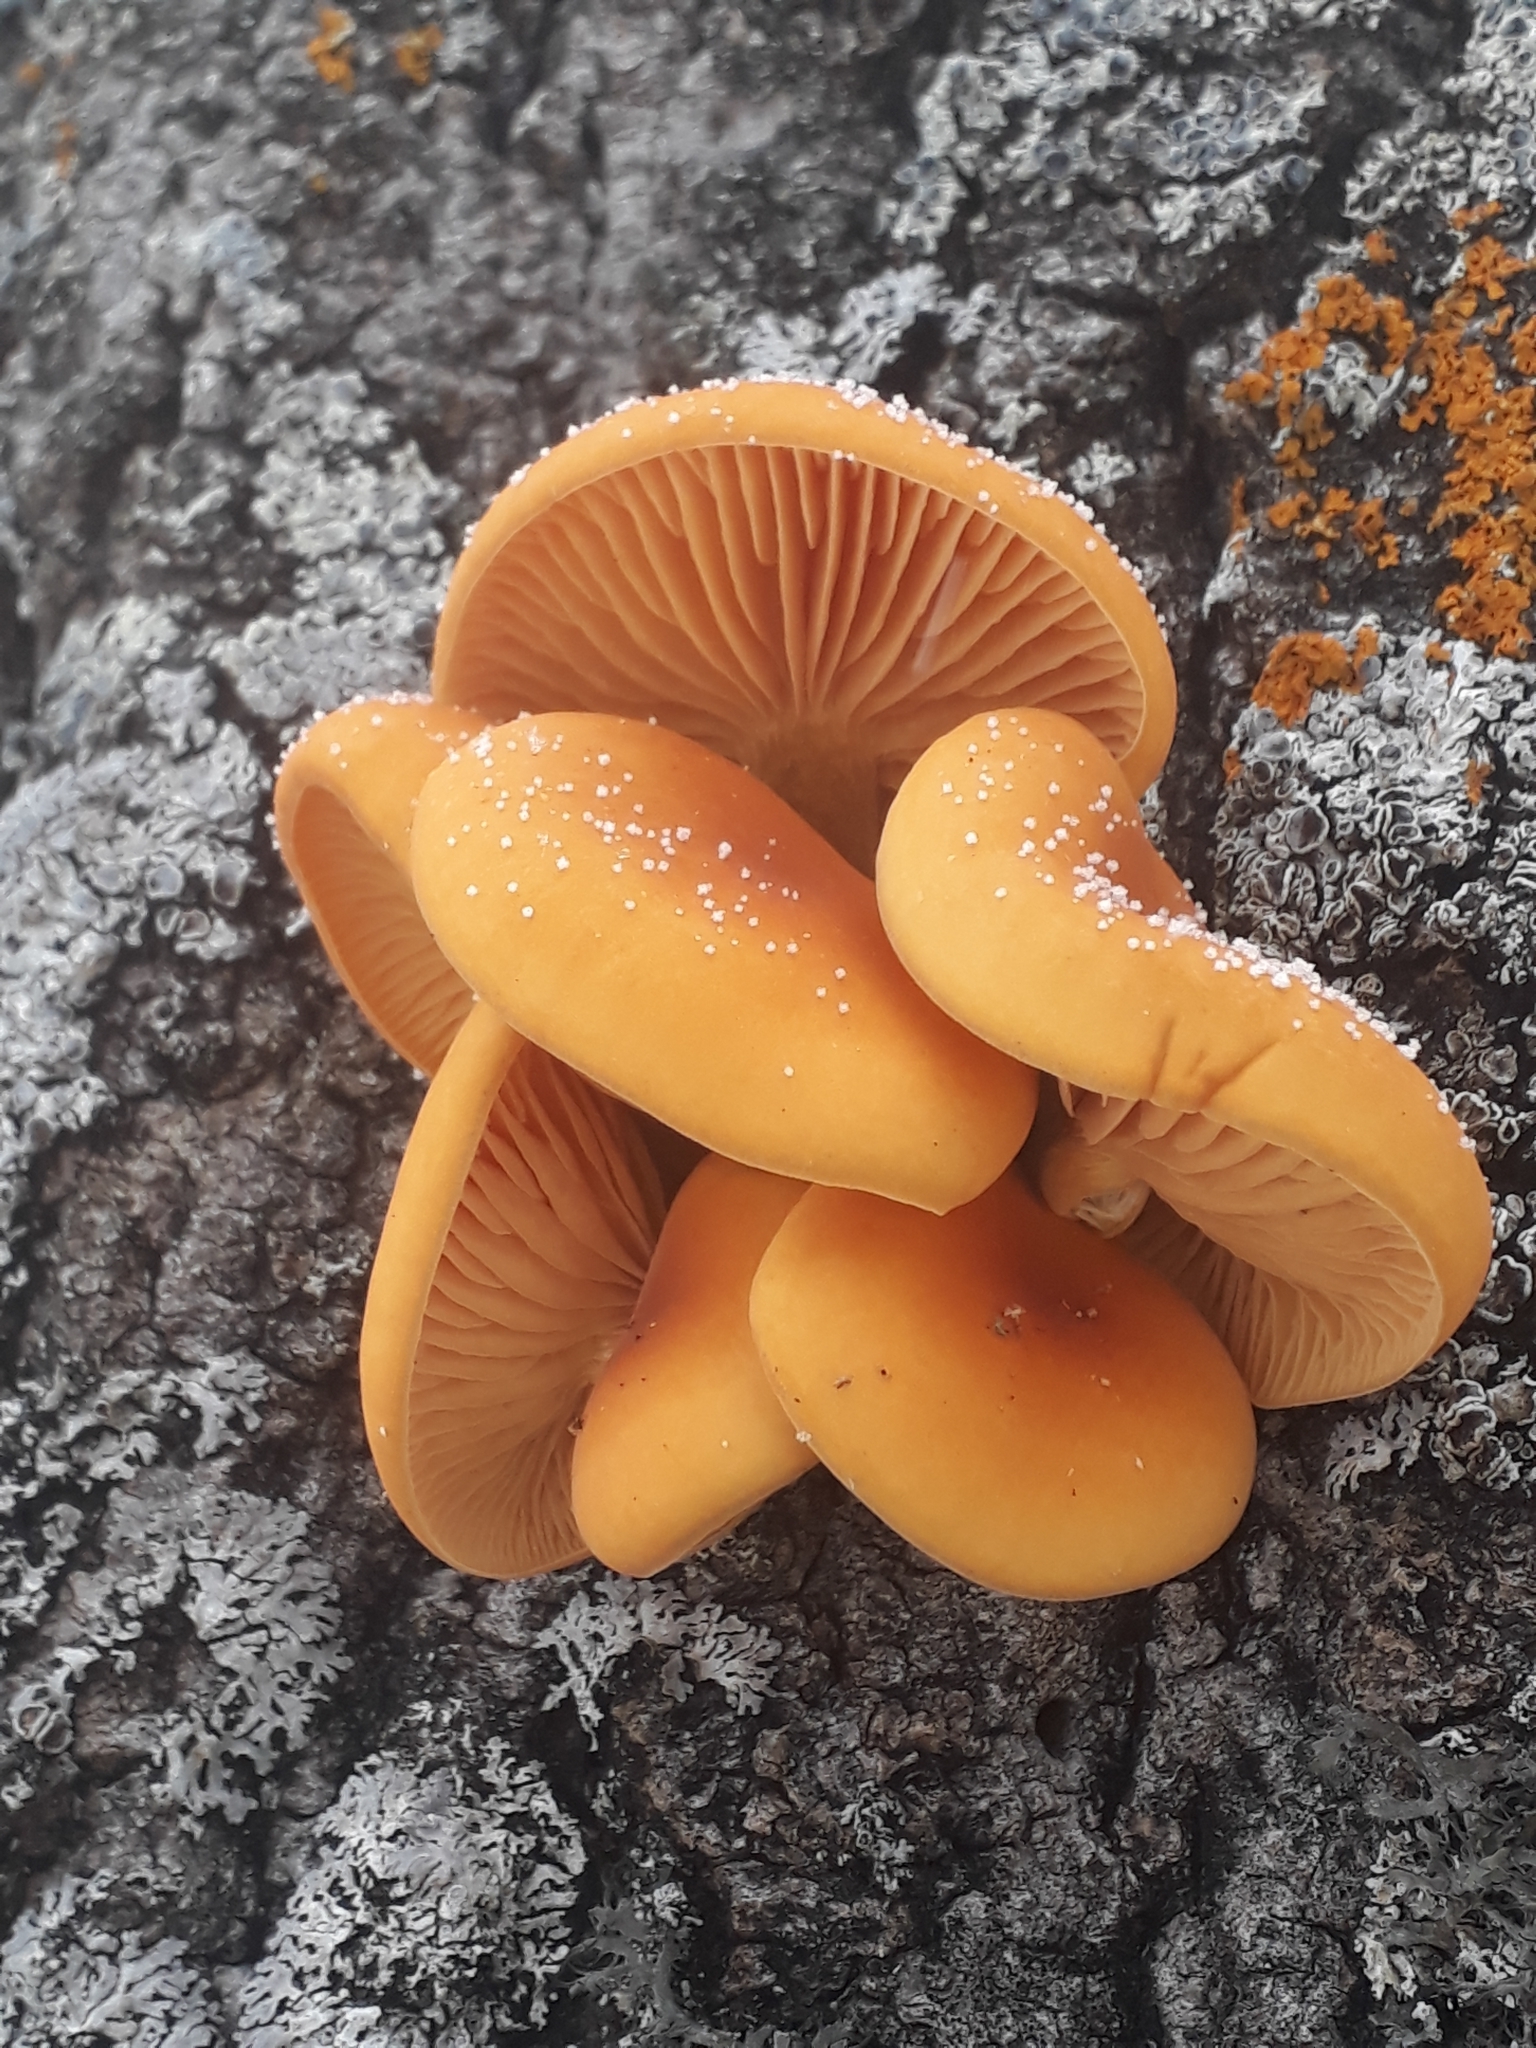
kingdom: Fungi
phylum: Basidiomycota
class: Agaricomycetes
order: Agaricales
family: Physalacriaceae
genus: Flammulina
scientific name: Flammulina
